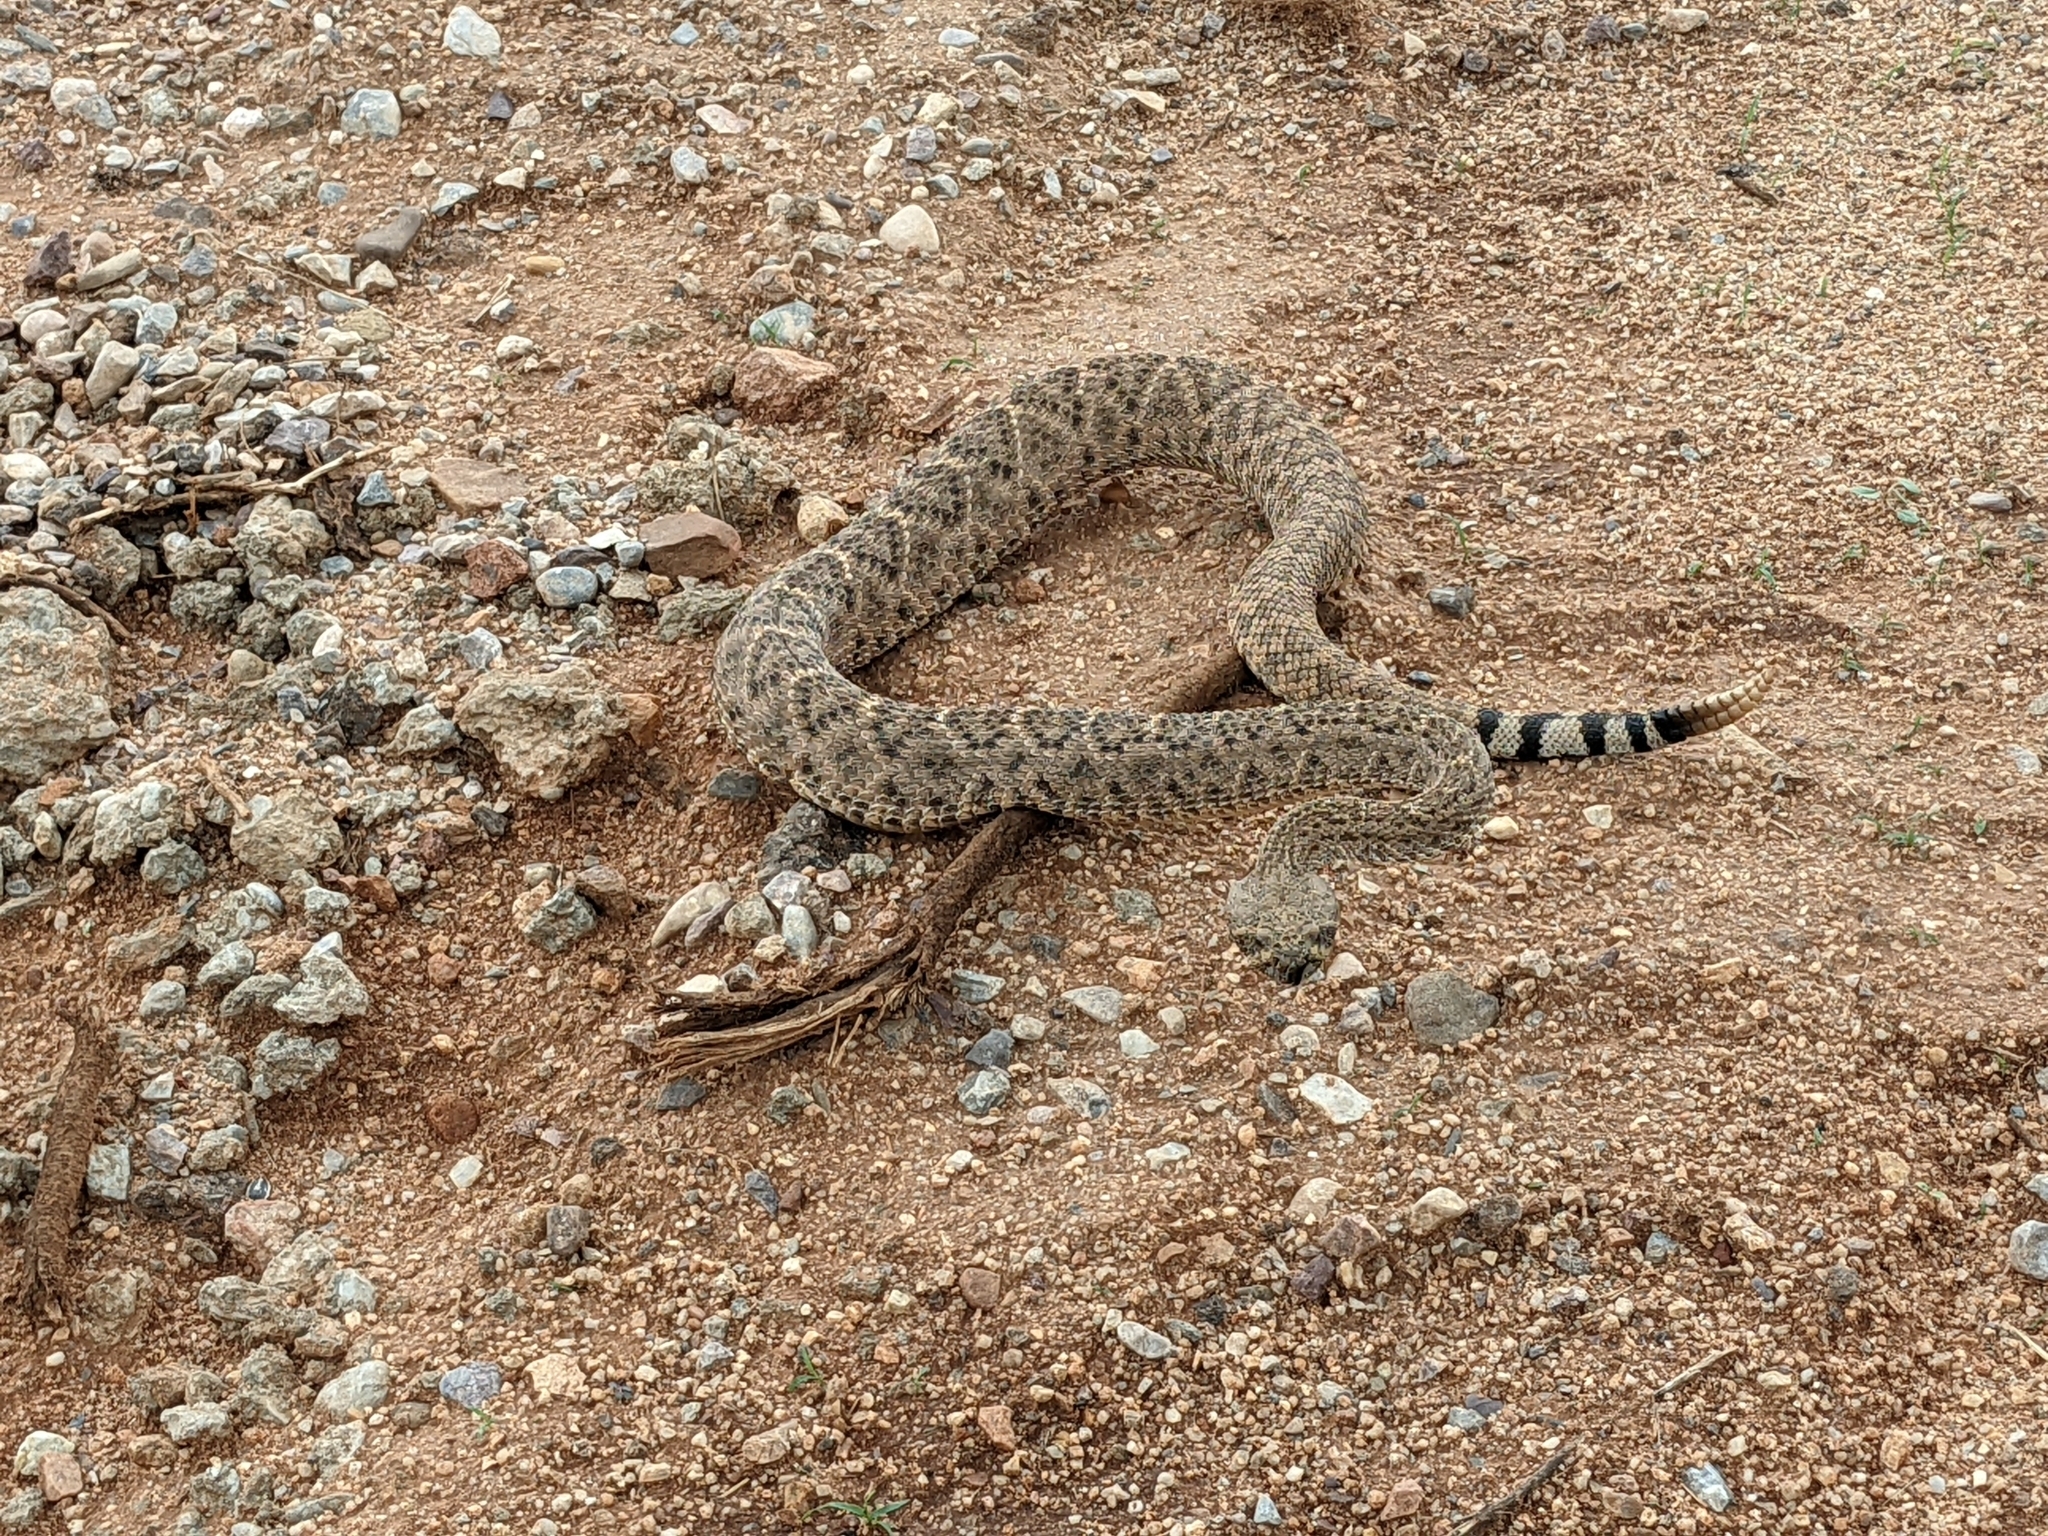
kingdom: Animalia
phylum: Chordata
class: Squamata
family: Viperidae
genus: Crotalus
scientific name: Crotalus atrox
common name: Western diamond-backed rattlesnake
